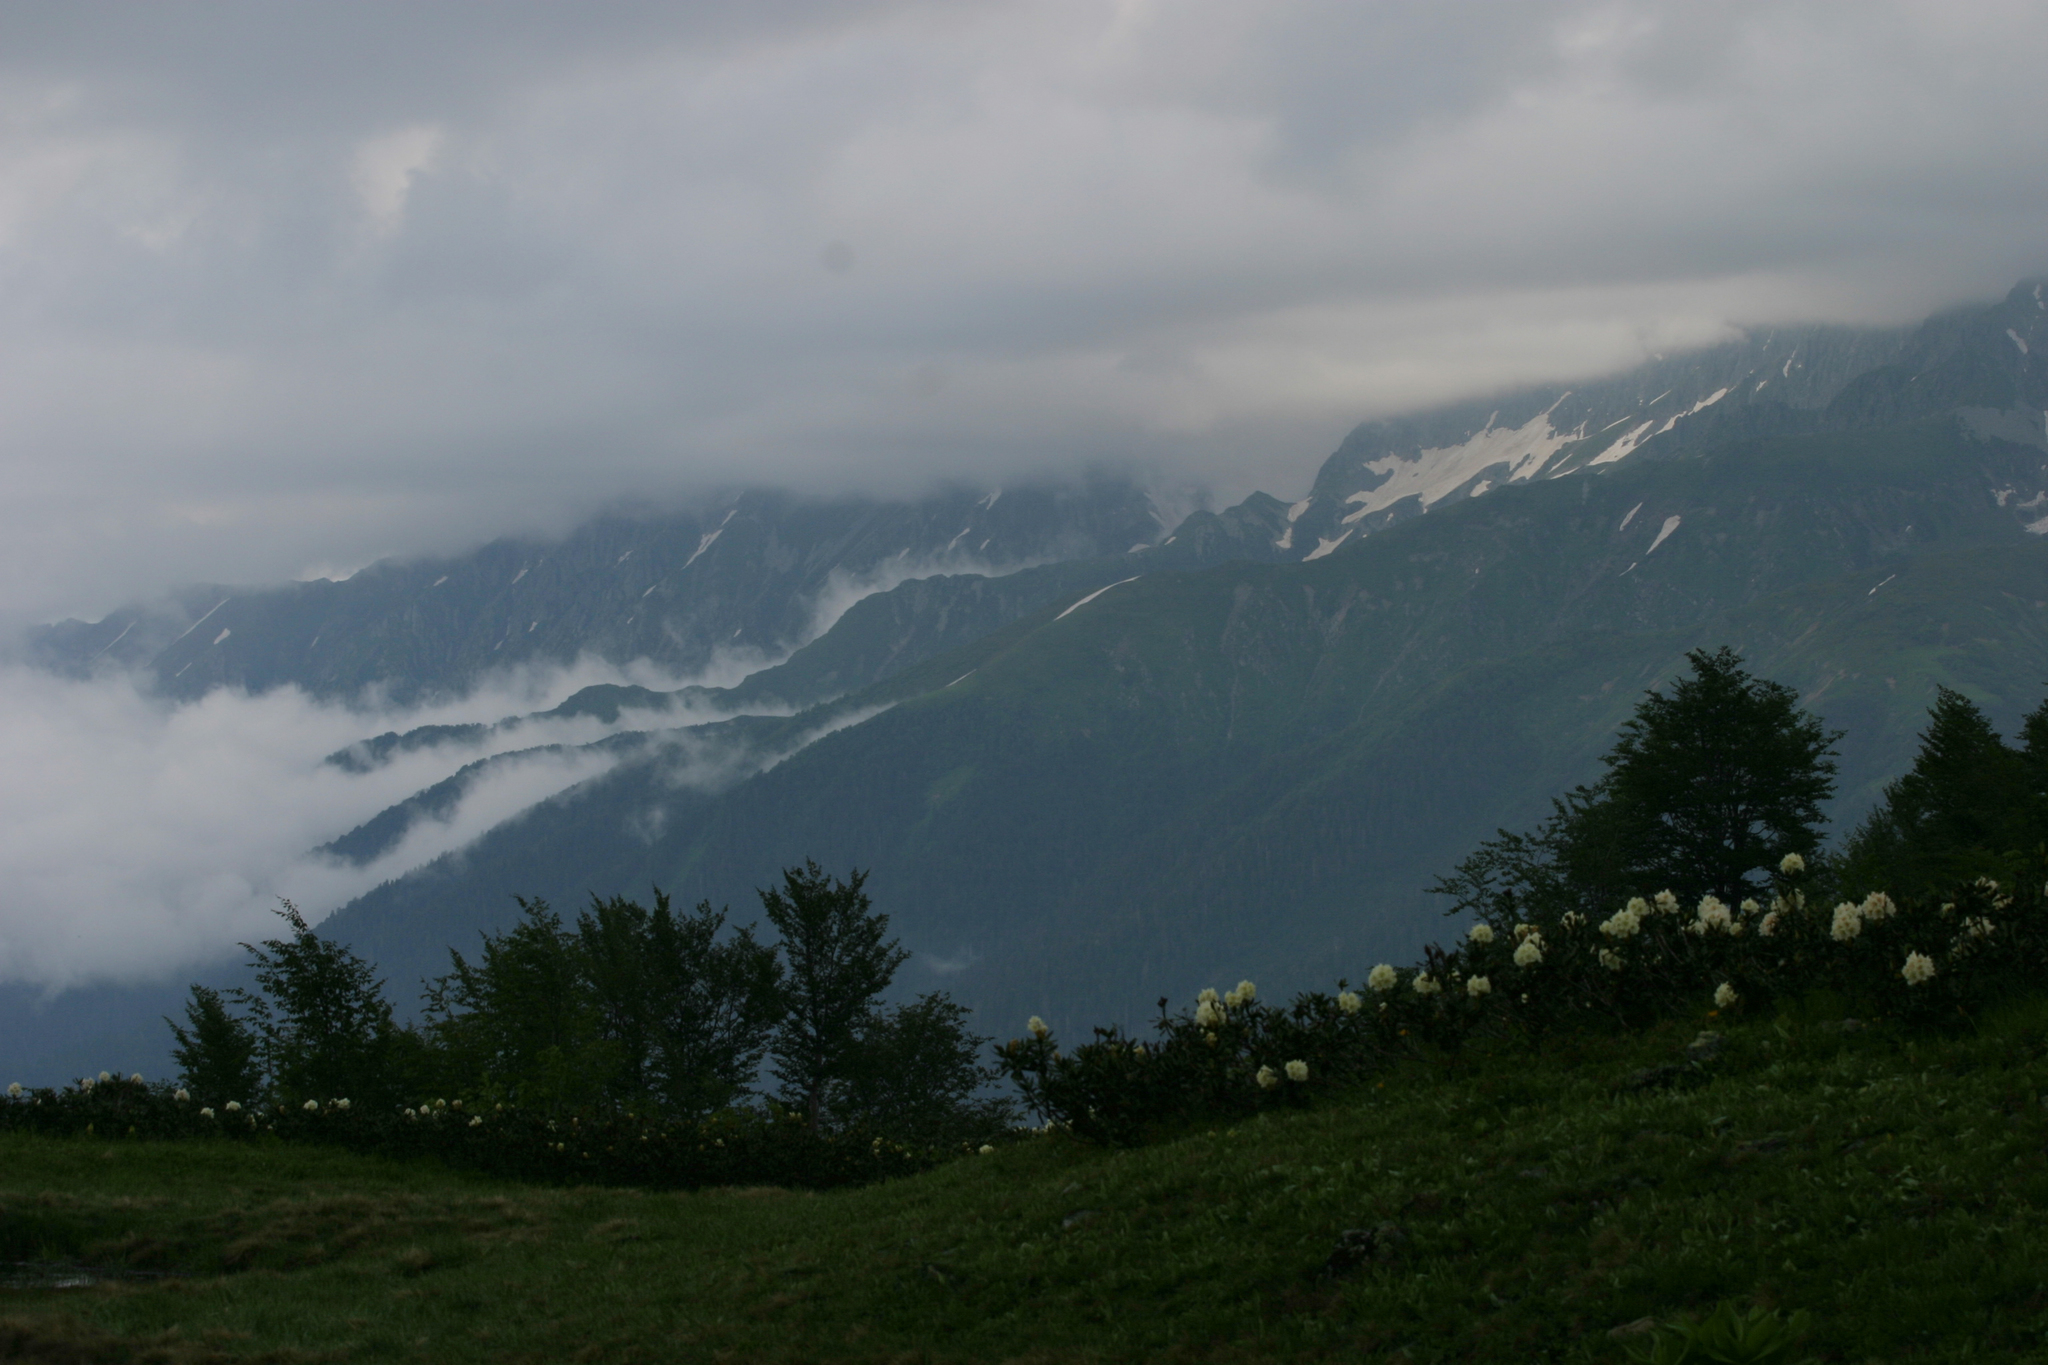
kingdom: Plantae
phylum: Tracheophyta
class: Magnoliopsida
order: Ericales
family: Ericaceae
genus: Rhododendron
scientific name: Rhododendron caucasicum
